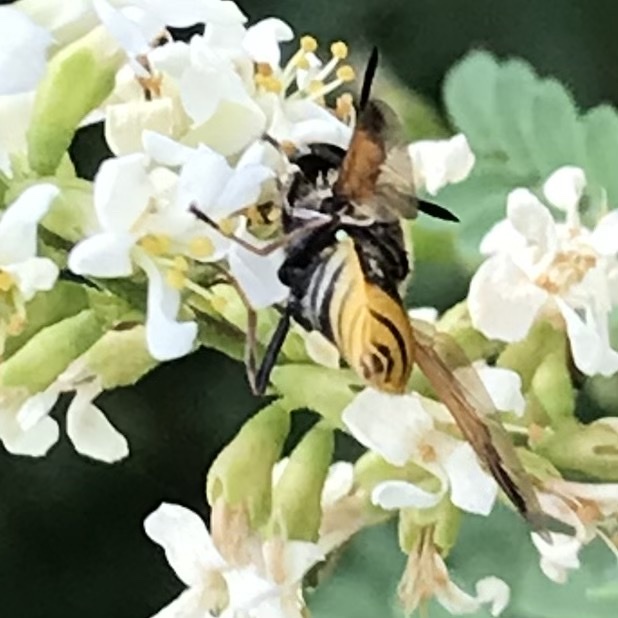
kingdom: Animalia
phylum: Arthropoda
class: Insecta
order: Diptera
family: Stratiomyidae
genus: Hoplitimyia
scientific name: Hoplitimyia mutabilis
